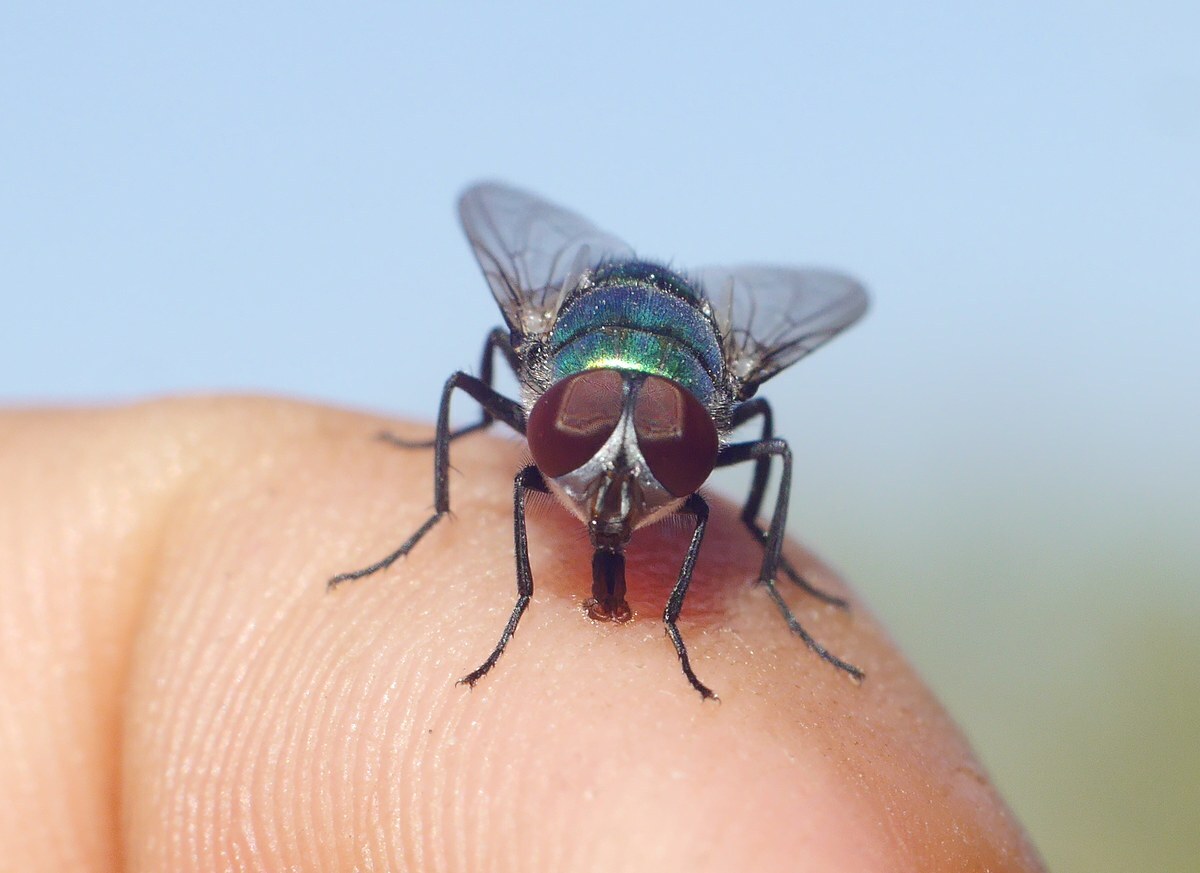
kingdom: Animalia
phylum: Arthropoda
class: Insecta
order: Diptera
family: Calliphoridae
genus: Chrysomya
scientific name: Chrysomya albiceps
